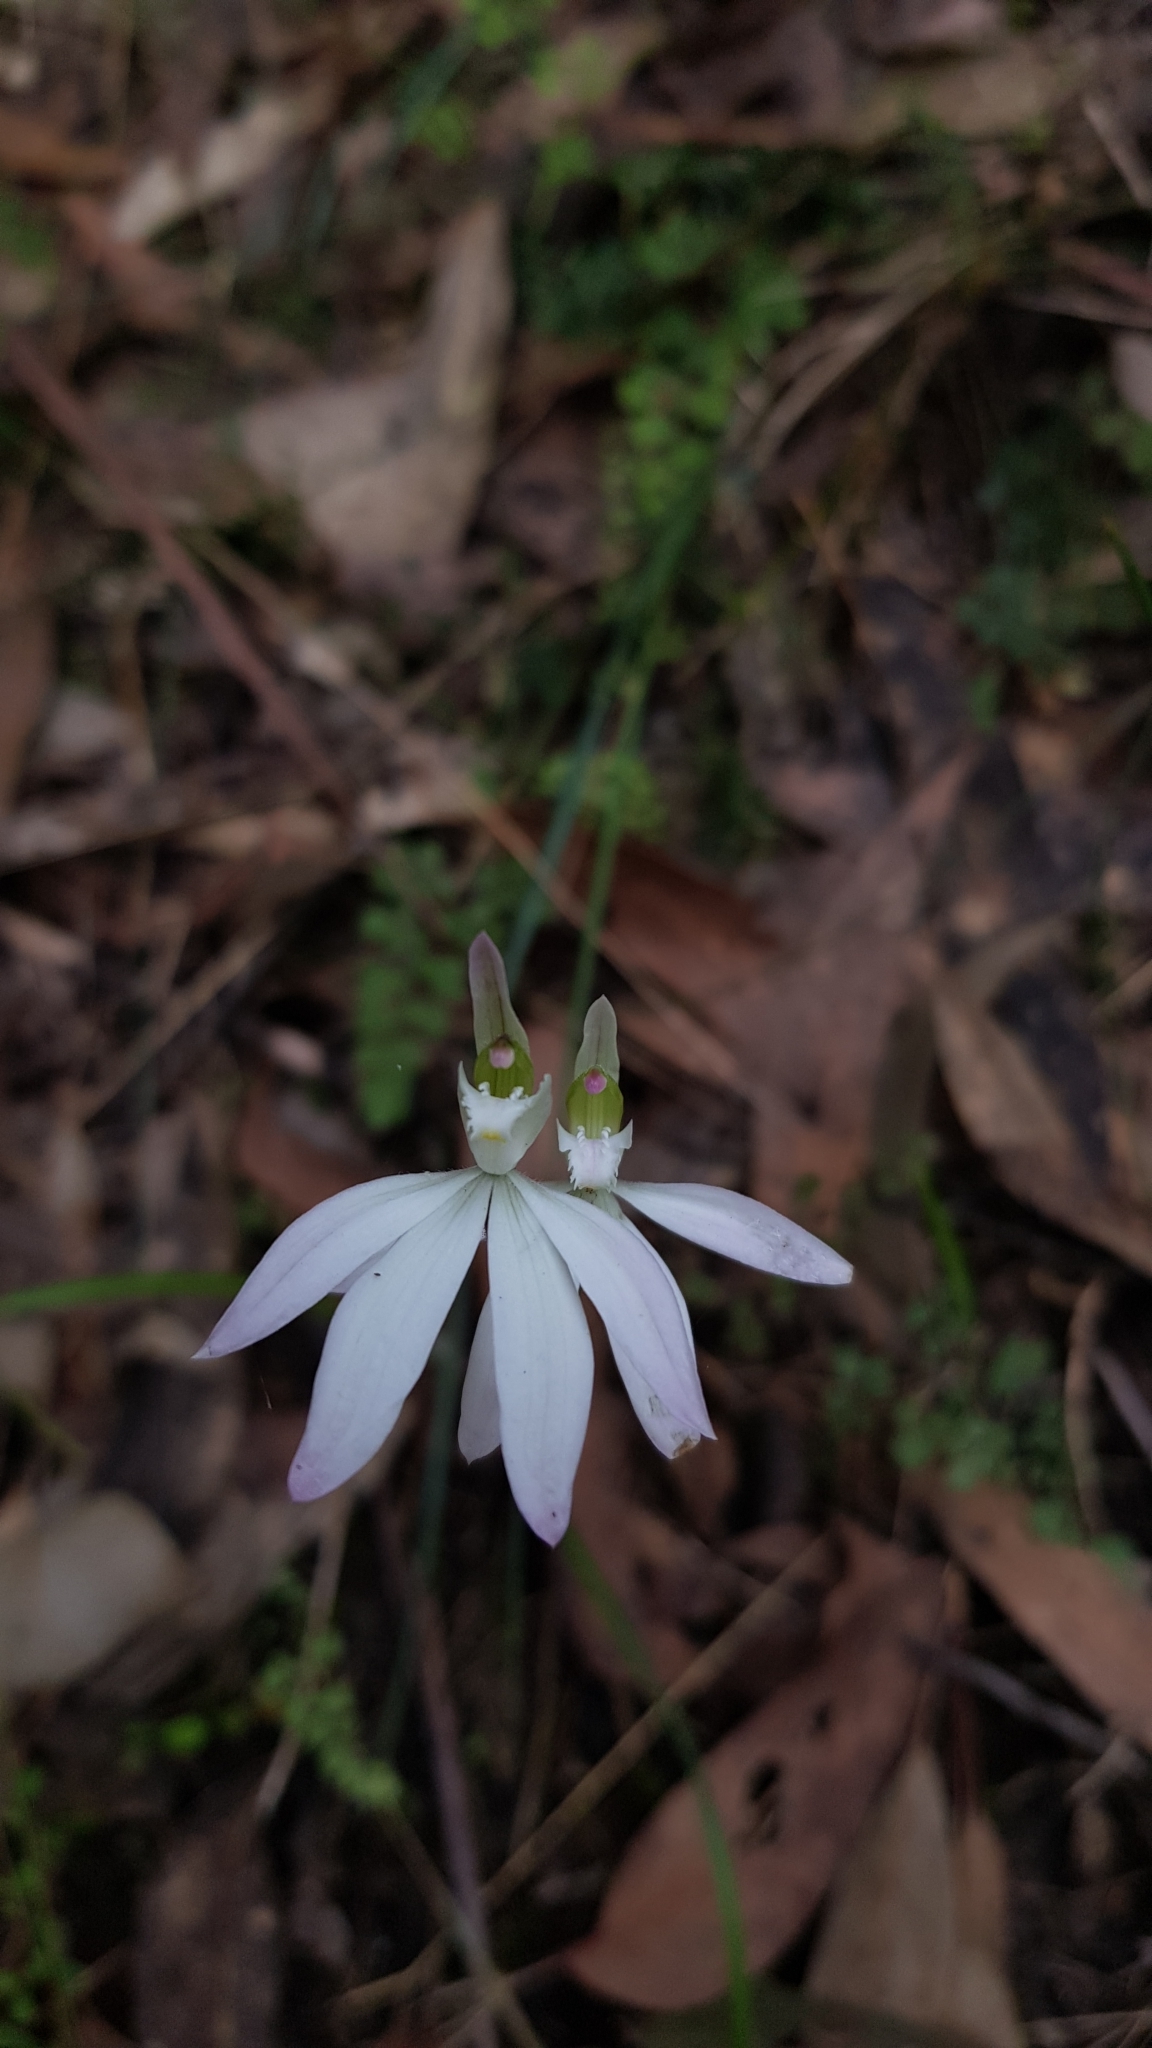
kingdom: Plantae
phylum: Tracheophyta
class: Liliopsida
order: Asparagales
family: Orchidaceae
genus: Caladenia
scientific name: Caladenia catenata
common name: White caladenia
